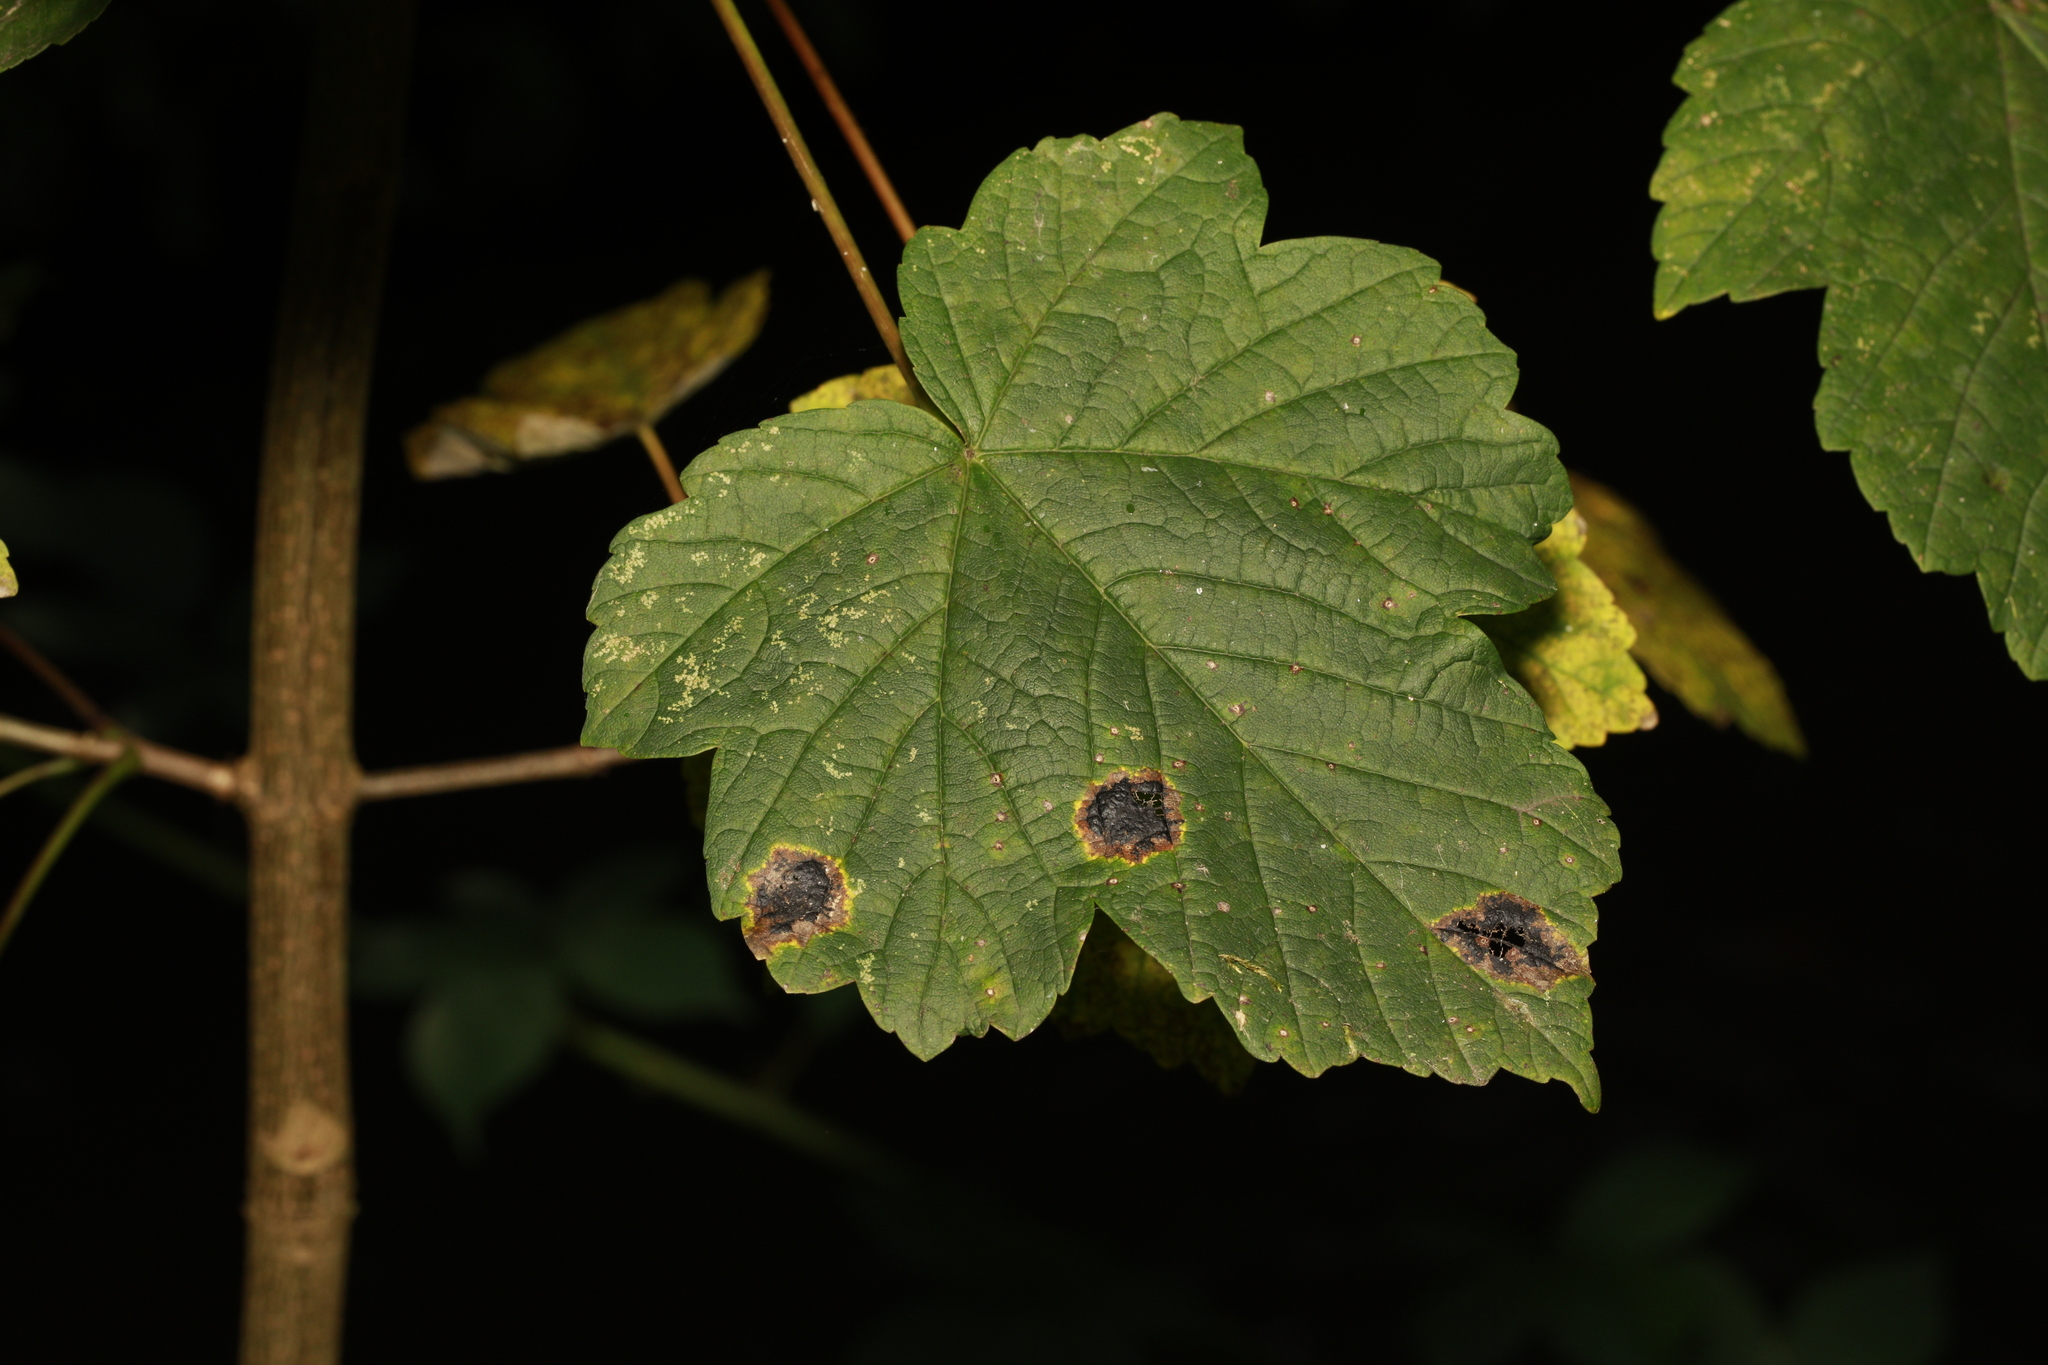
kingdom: Fungi
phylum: Ascomycota
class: Leotiomycetes
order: Rhytismatales
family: Rhytismataceae
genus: Rhytisma
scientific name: Rhytisma acerinum
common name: European tar spot
